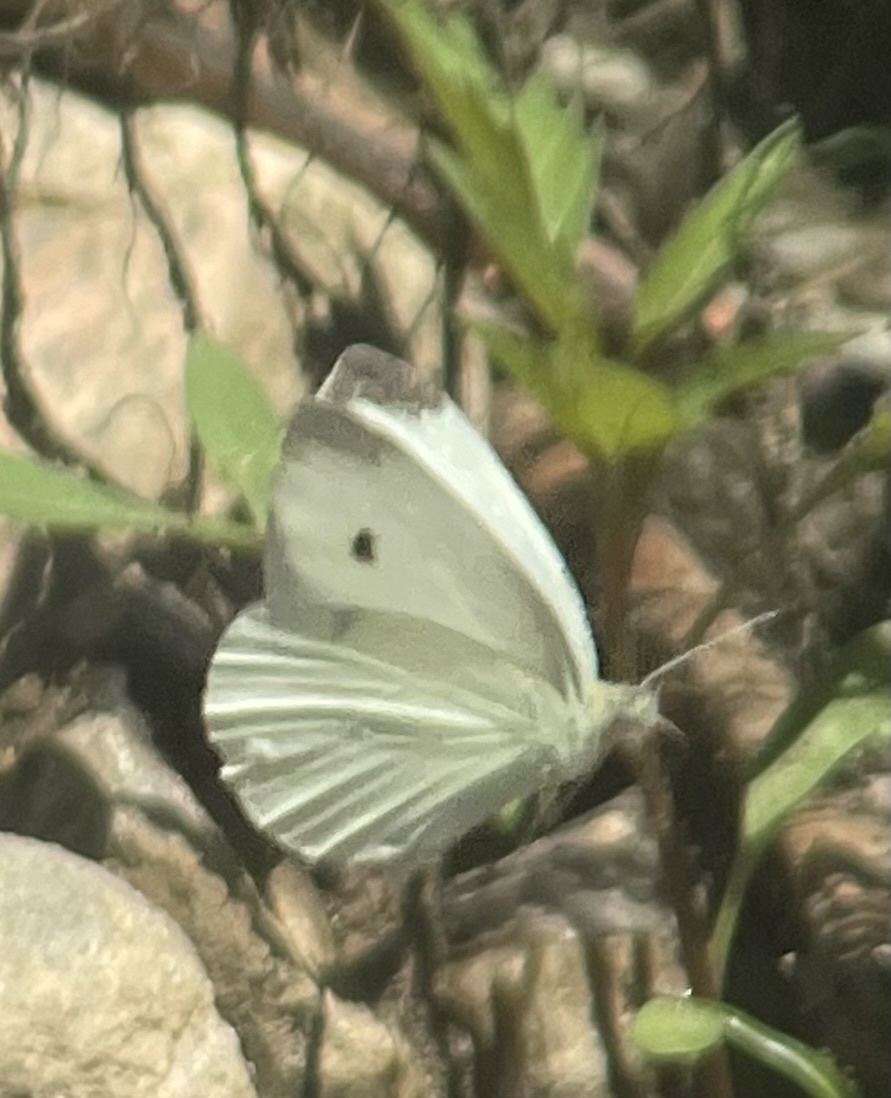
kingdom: Animalia
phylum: Arthropoda
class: Insecta
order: Lepidoptera
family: Pieridae
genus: Pieris
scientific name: Pieris rapae
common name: Small white
